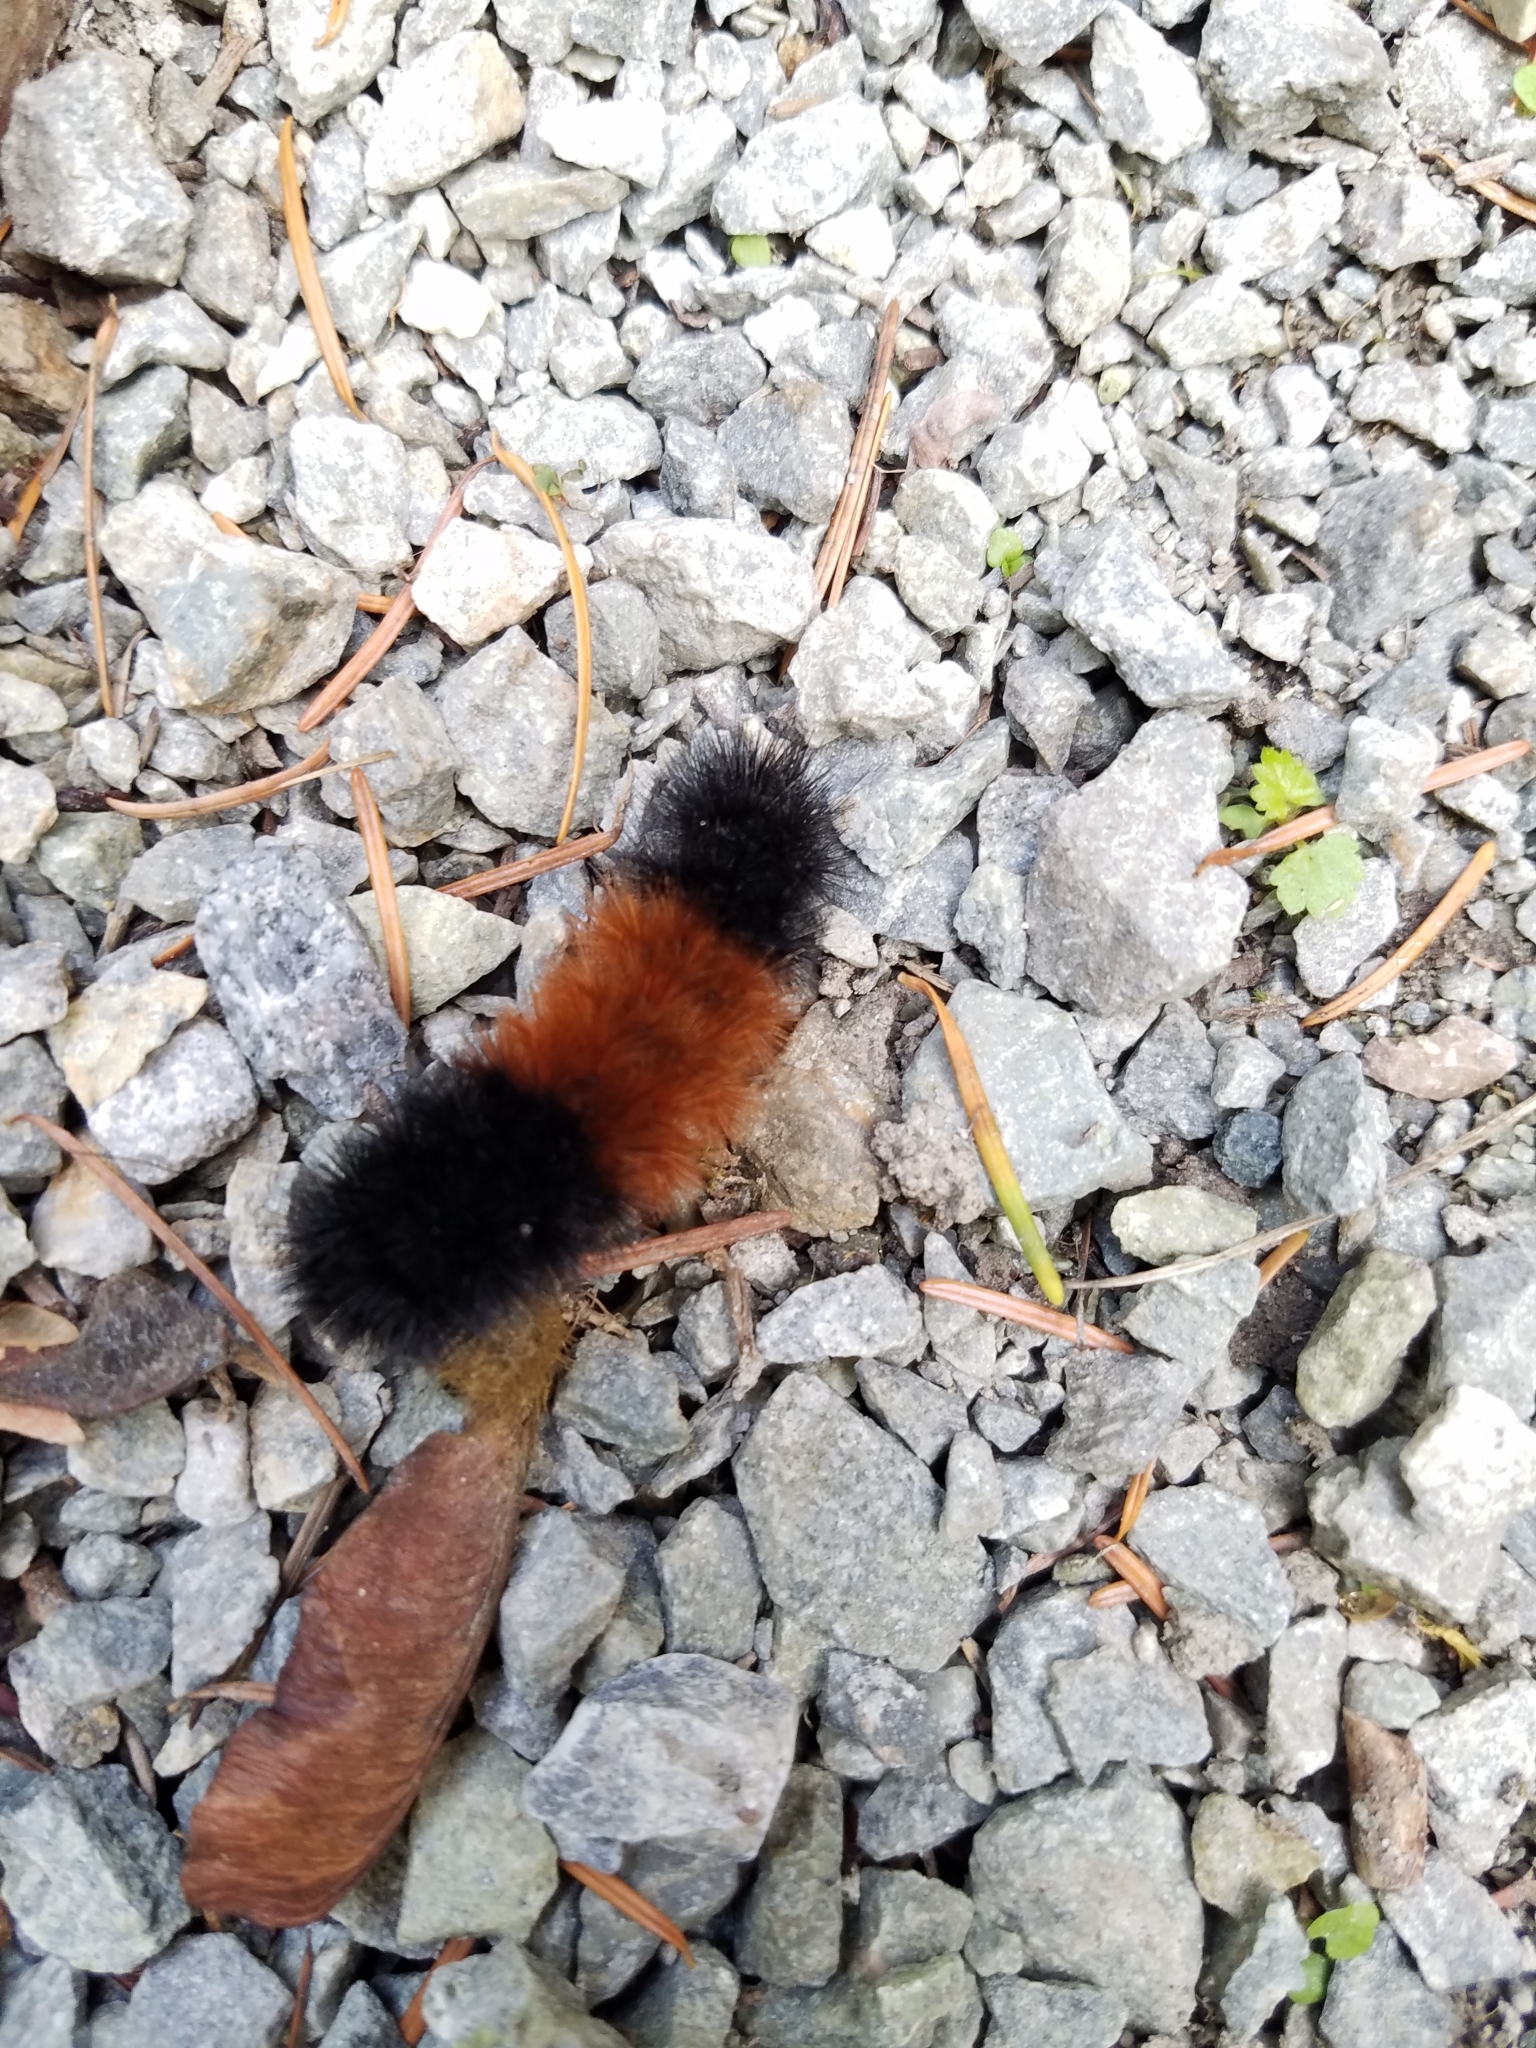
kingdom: Animalia
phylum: Arthropoda
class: Insecta
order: Lepidoptera
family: Erebidae
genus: Pyrrharctia
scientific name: Pyrrharctia isabella
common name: Isabella tiger moth
